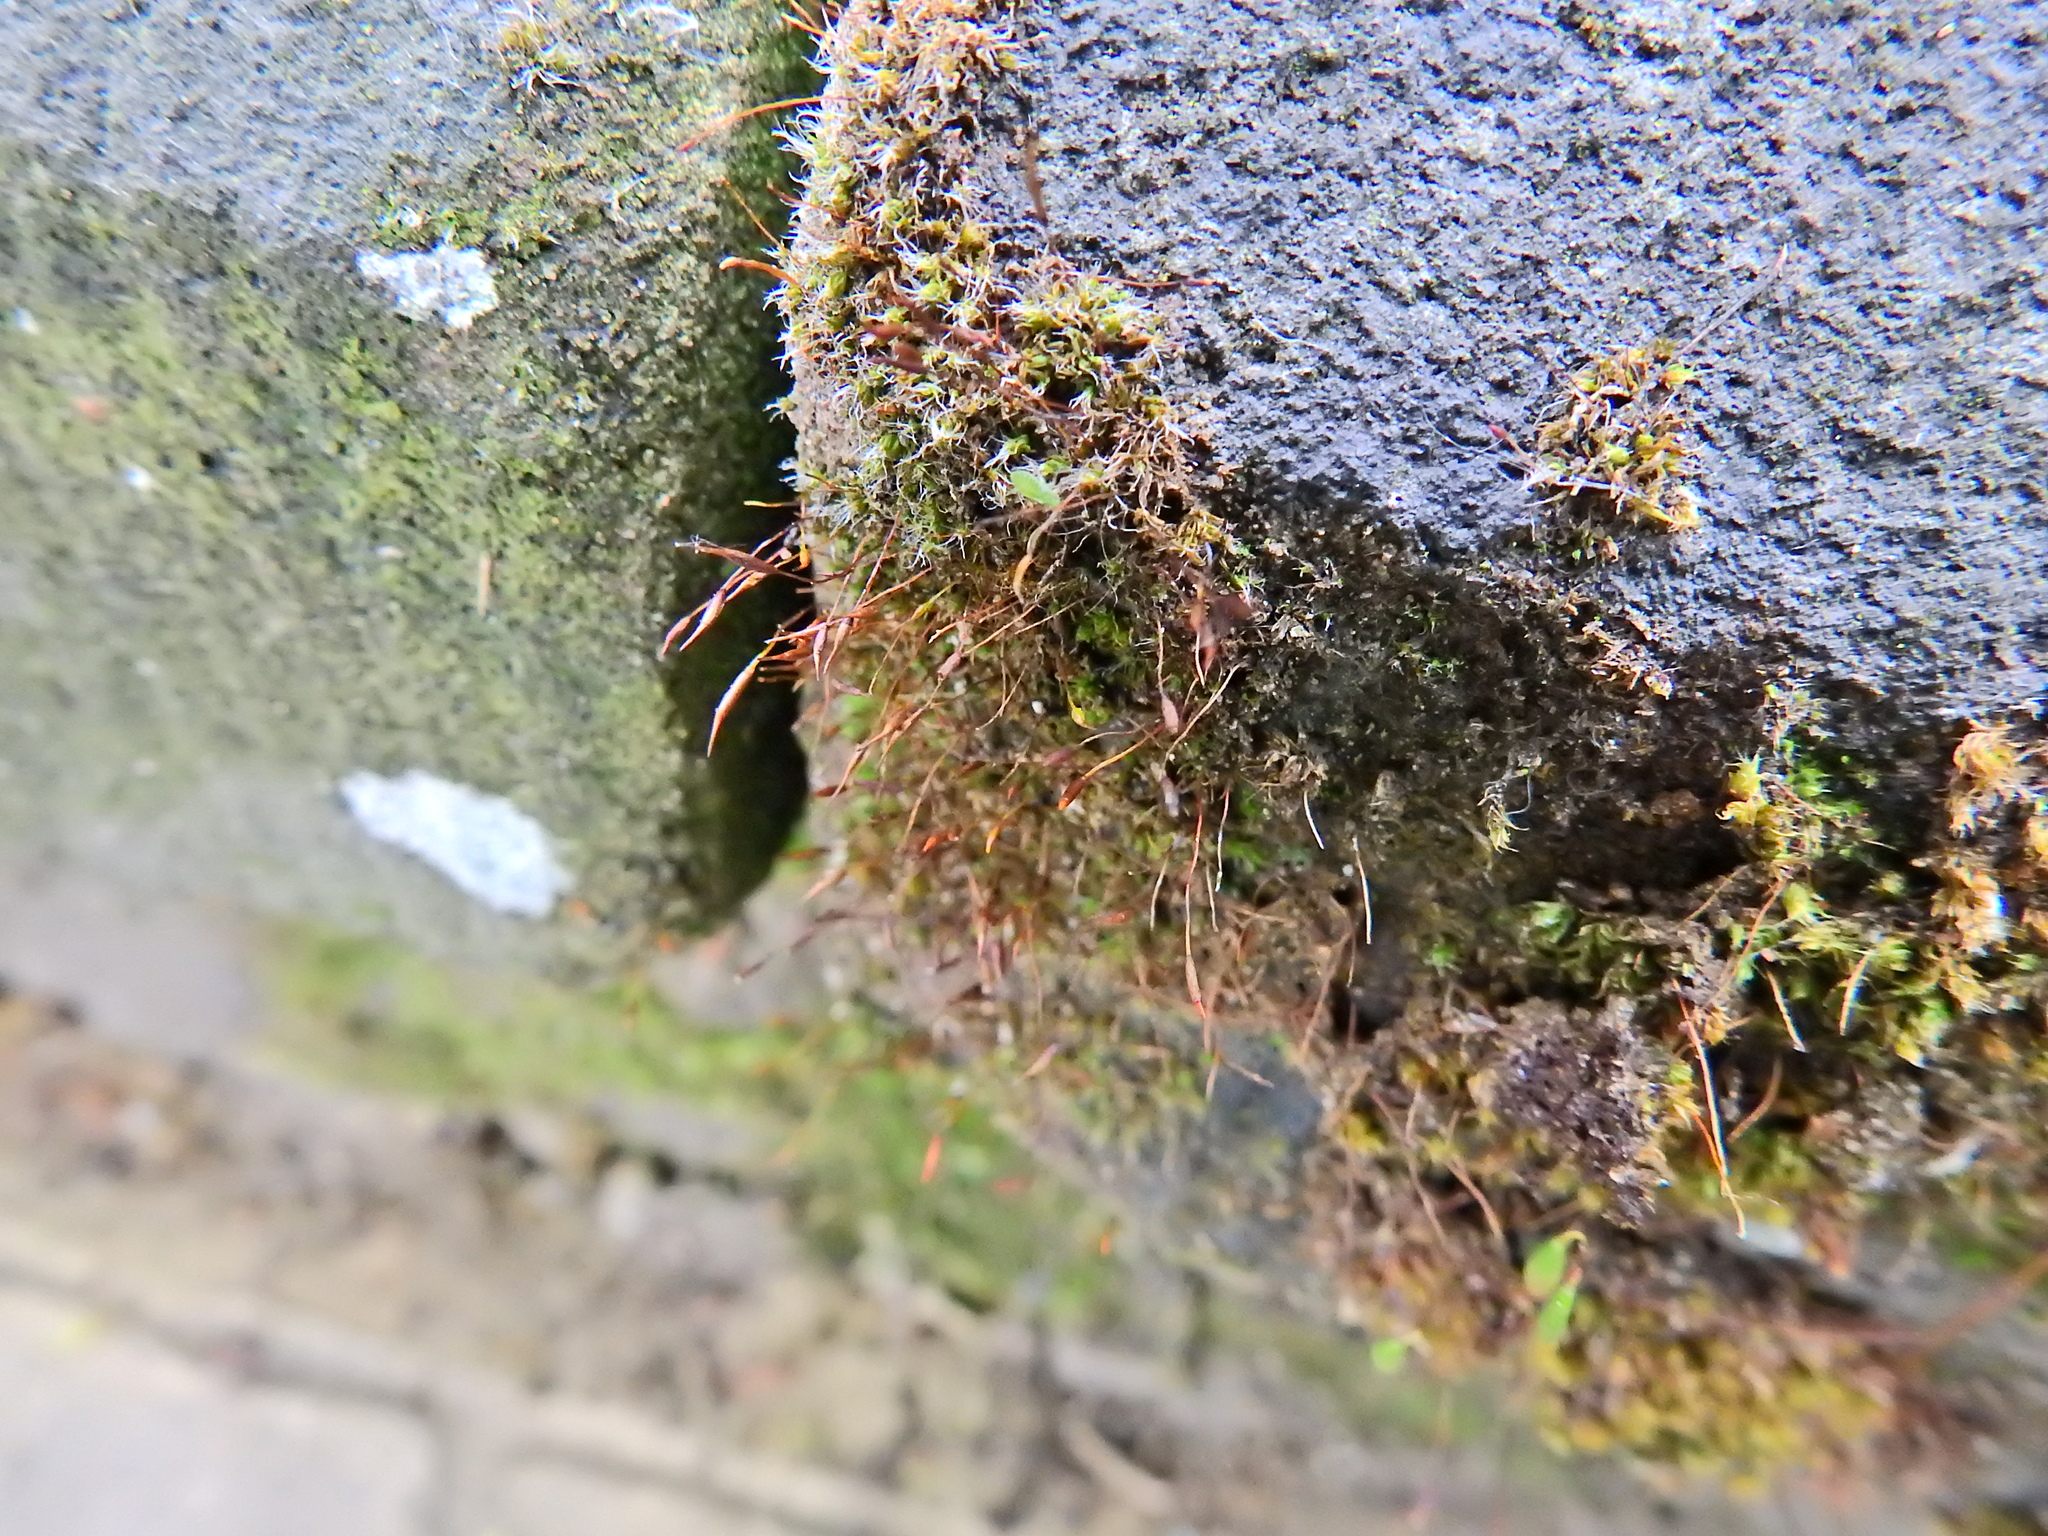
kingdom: Plantae
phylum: Bryophyta
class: Bryopsida
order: Pottiales
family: Pottiaceae
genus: Tortula
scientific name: Tortula muralis
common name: Wall screw-moss
